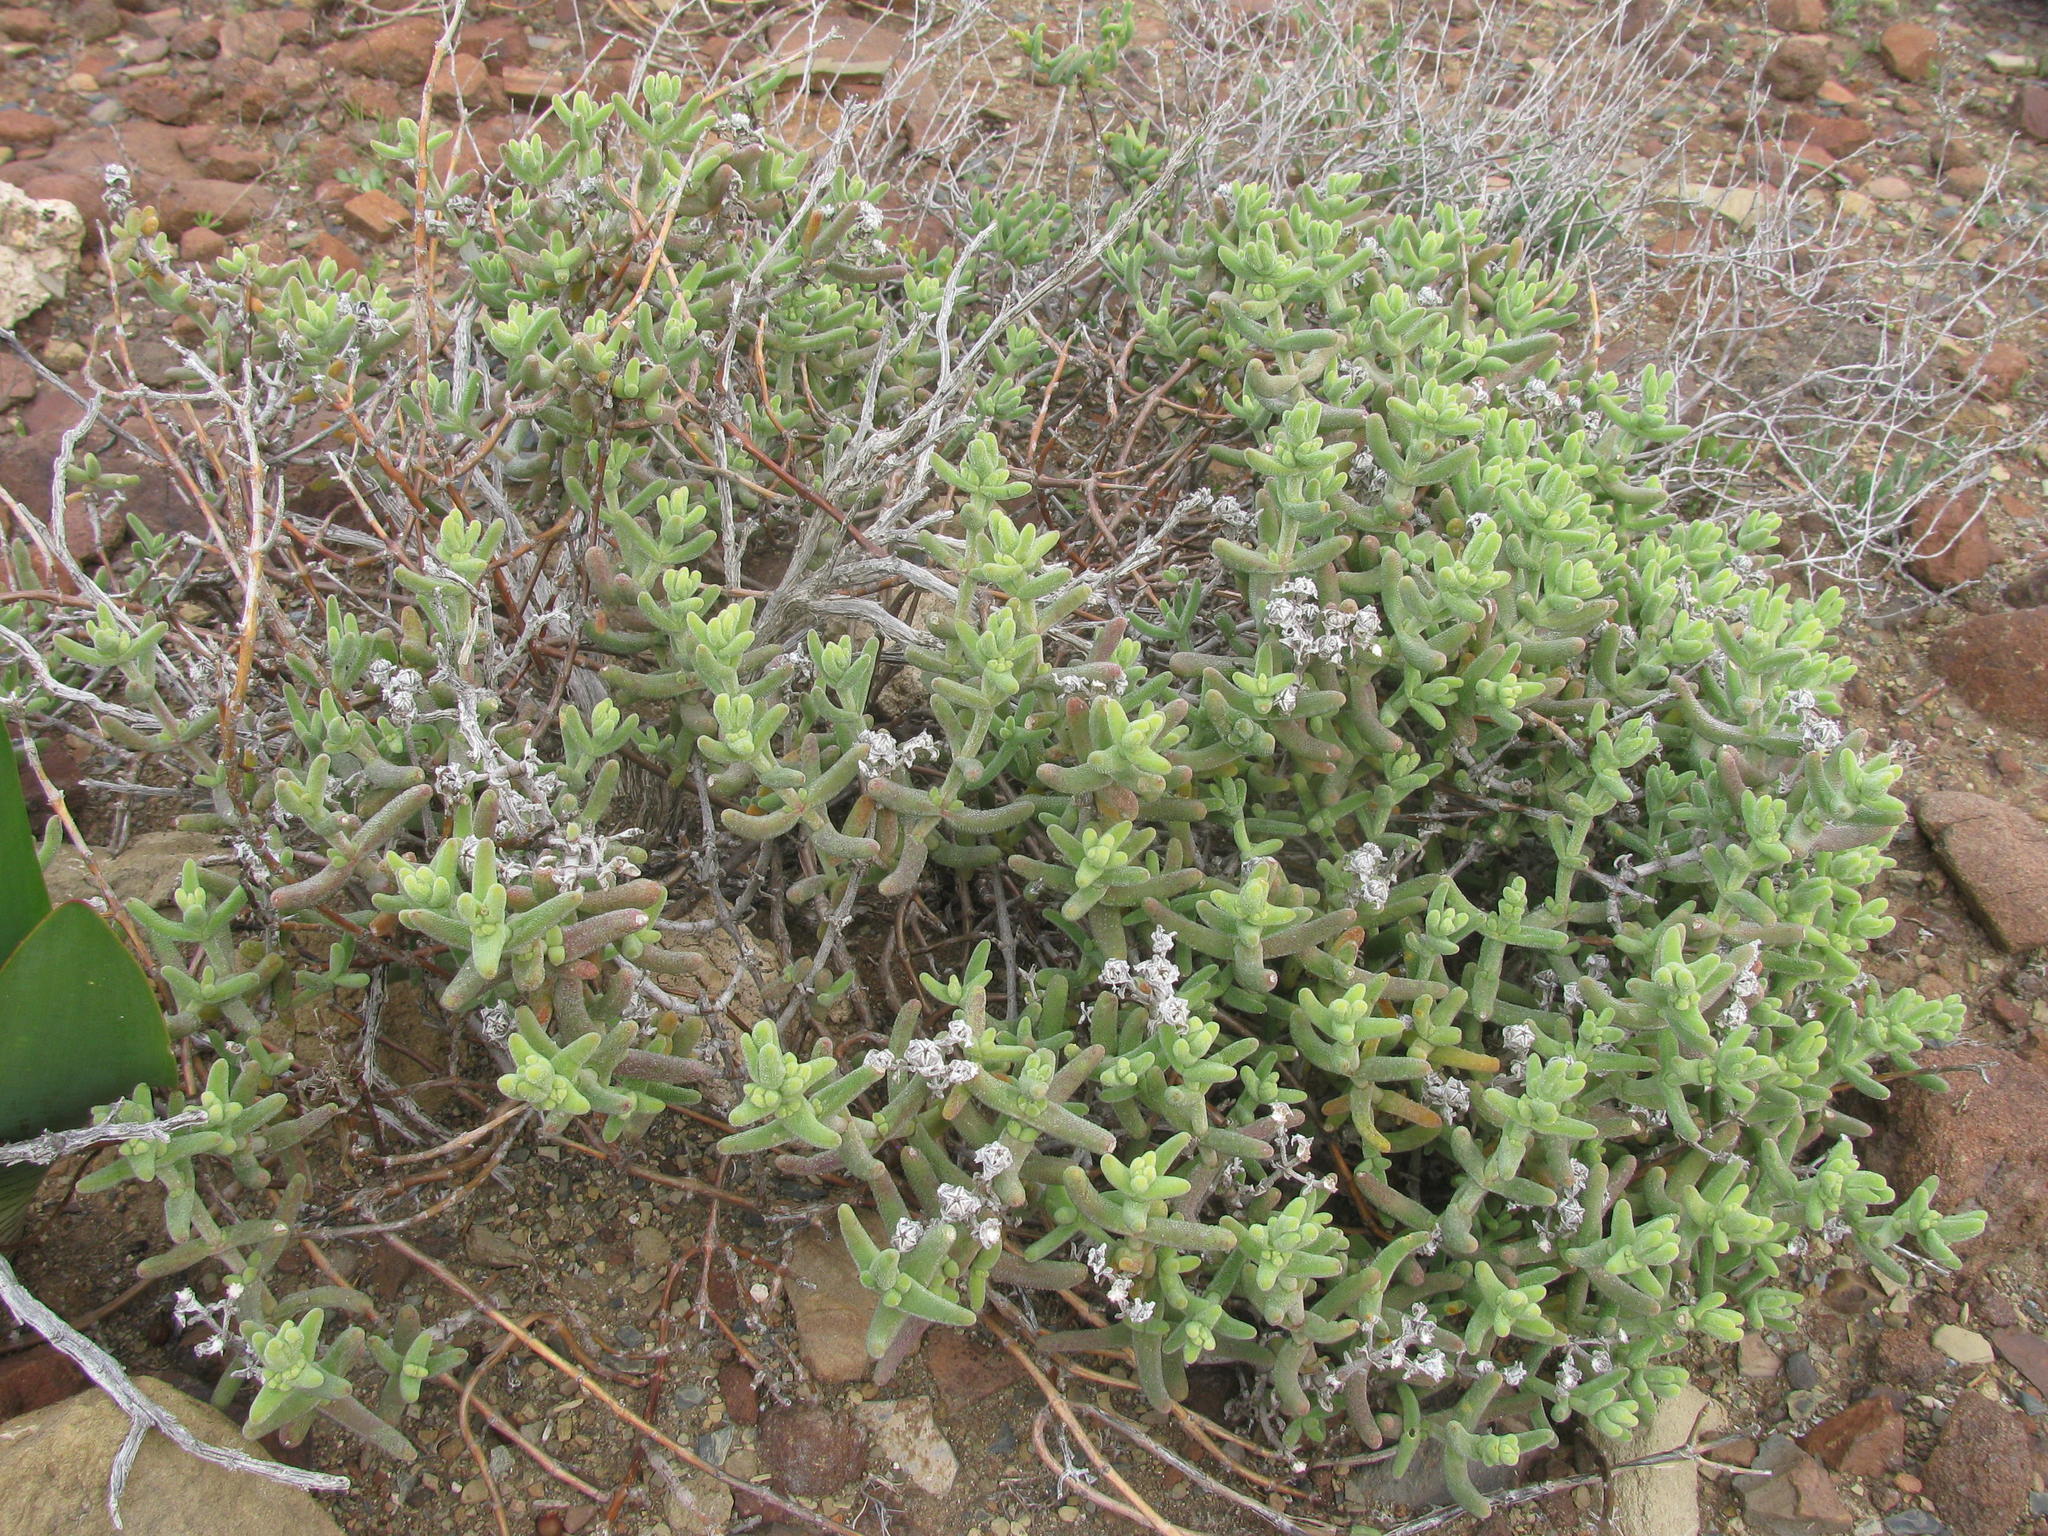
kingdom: Plantae
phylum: Tracheophyta
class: Magnoliopsida
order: Caryophyllales
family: Aizoaceae
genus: Mesembryanthemum
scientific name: Mesembryanthemum nitidum
